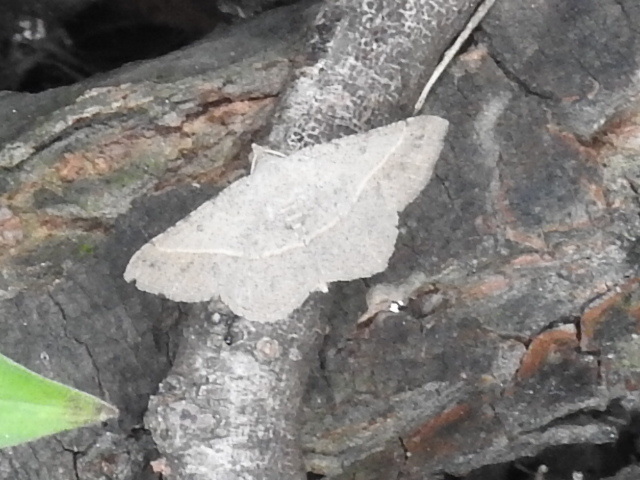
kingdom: Animalia
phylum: Arthropoda
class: Insecta
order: Lepidoptera
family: Geometridae
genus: Digrammia
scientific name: Digrammia irrorata
